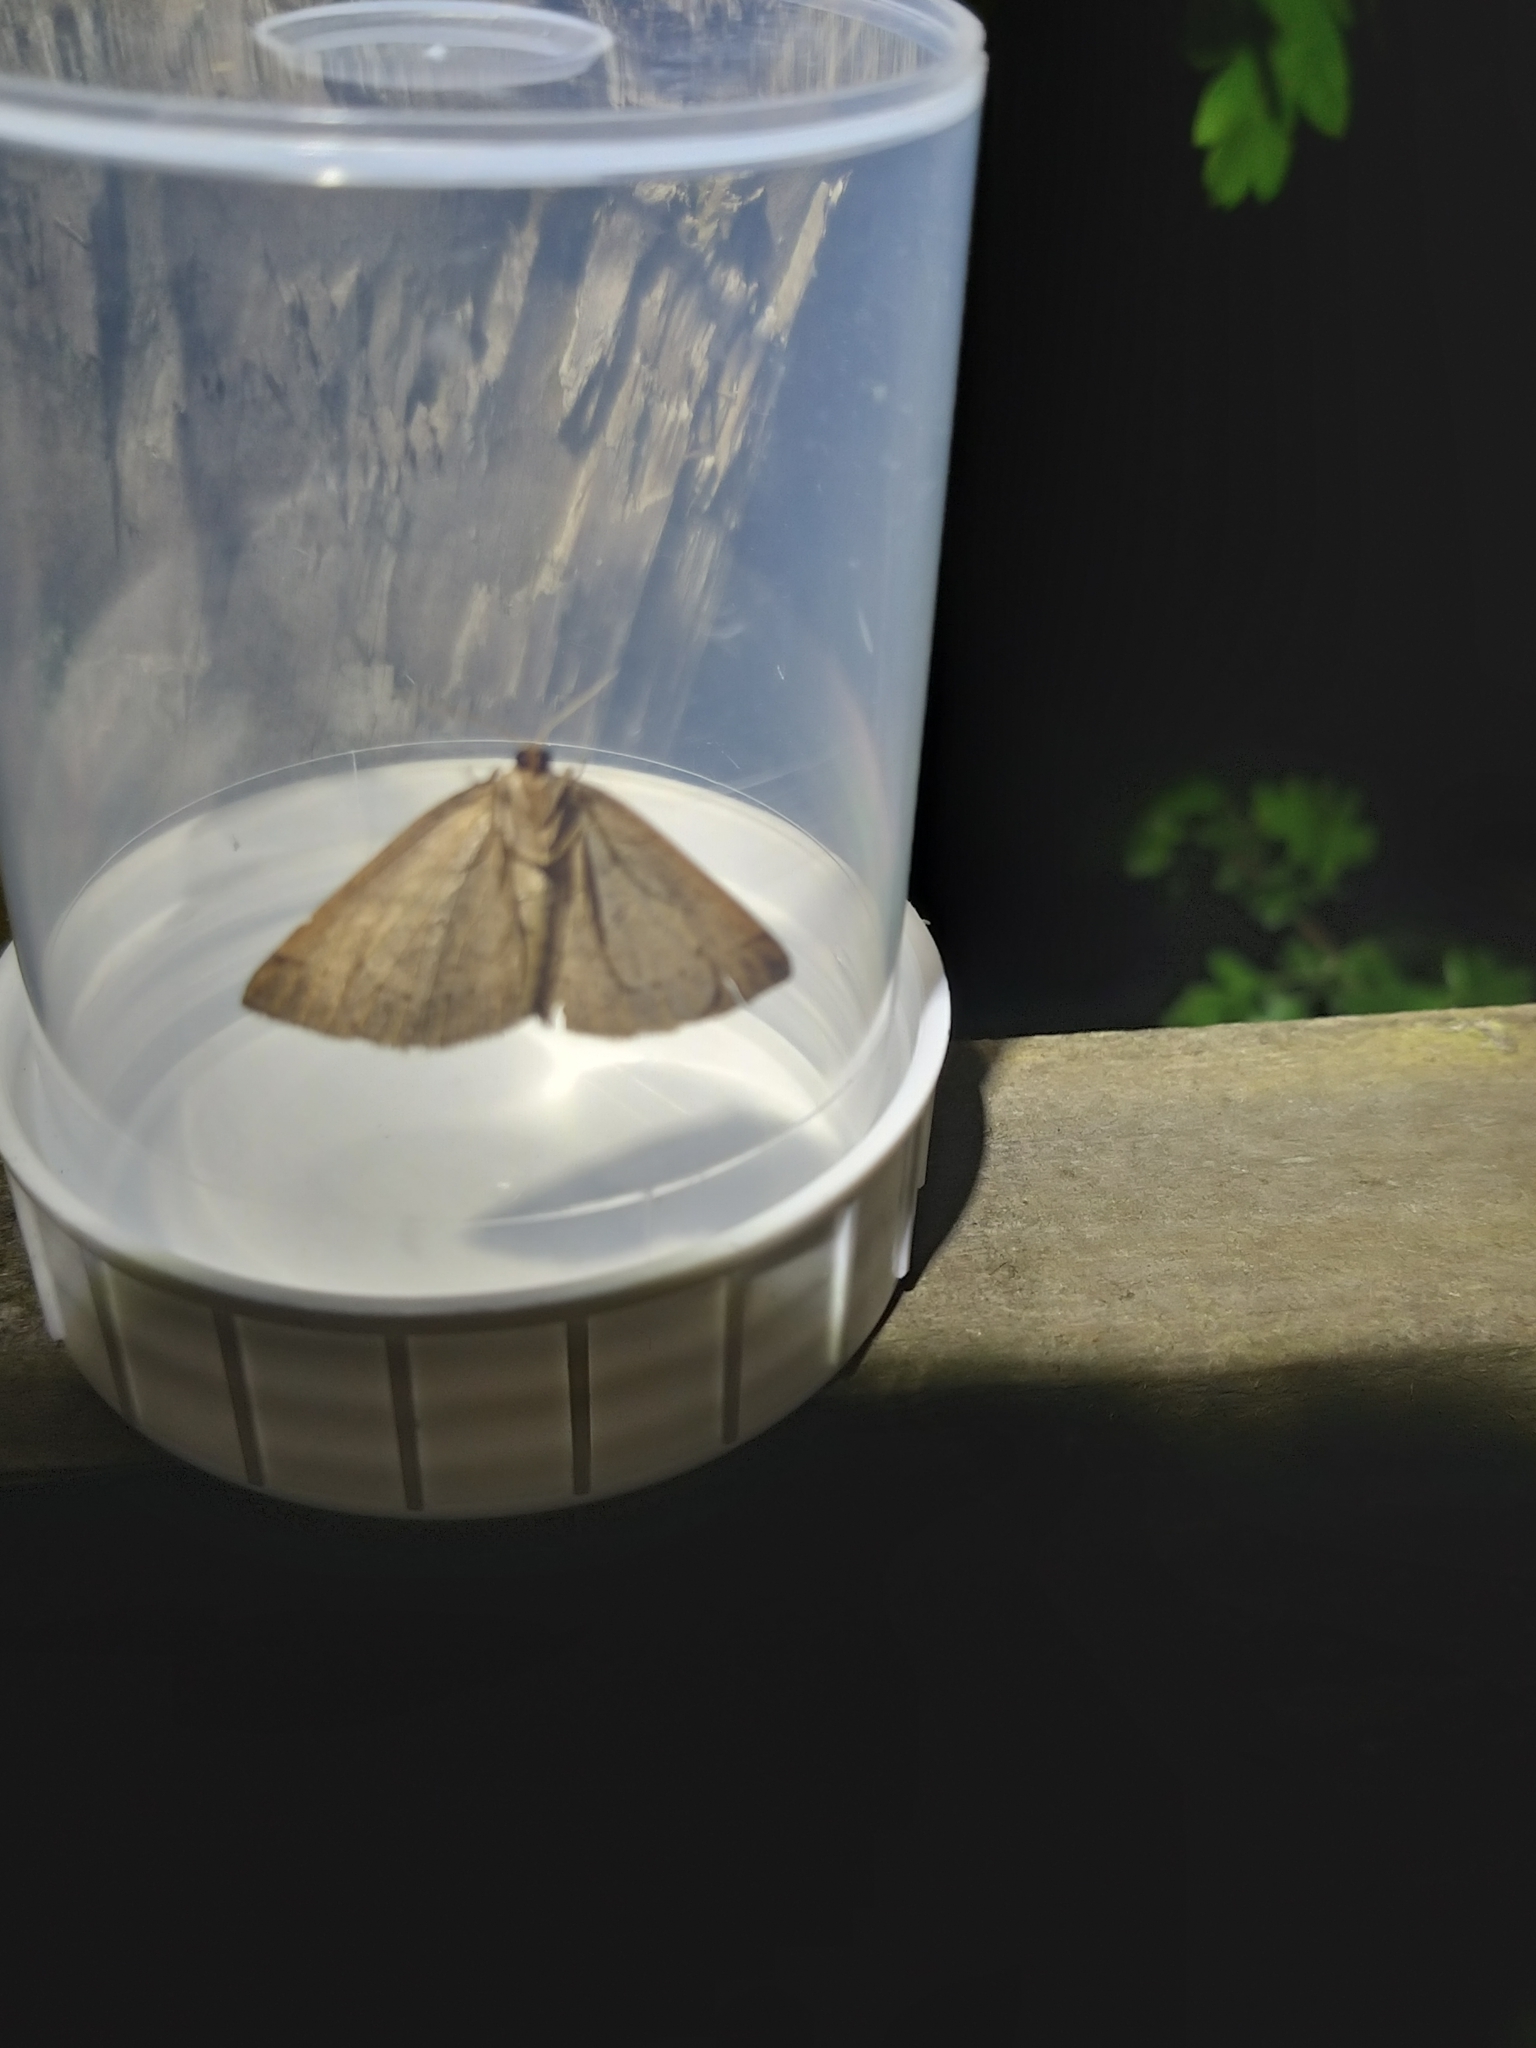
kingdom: Animalia
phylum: Arthropoda
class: Insecta
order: Lepidoptera
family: Pterophoridae
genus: Pterophorus
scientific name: Pterophorus Petrophora chlorosata
